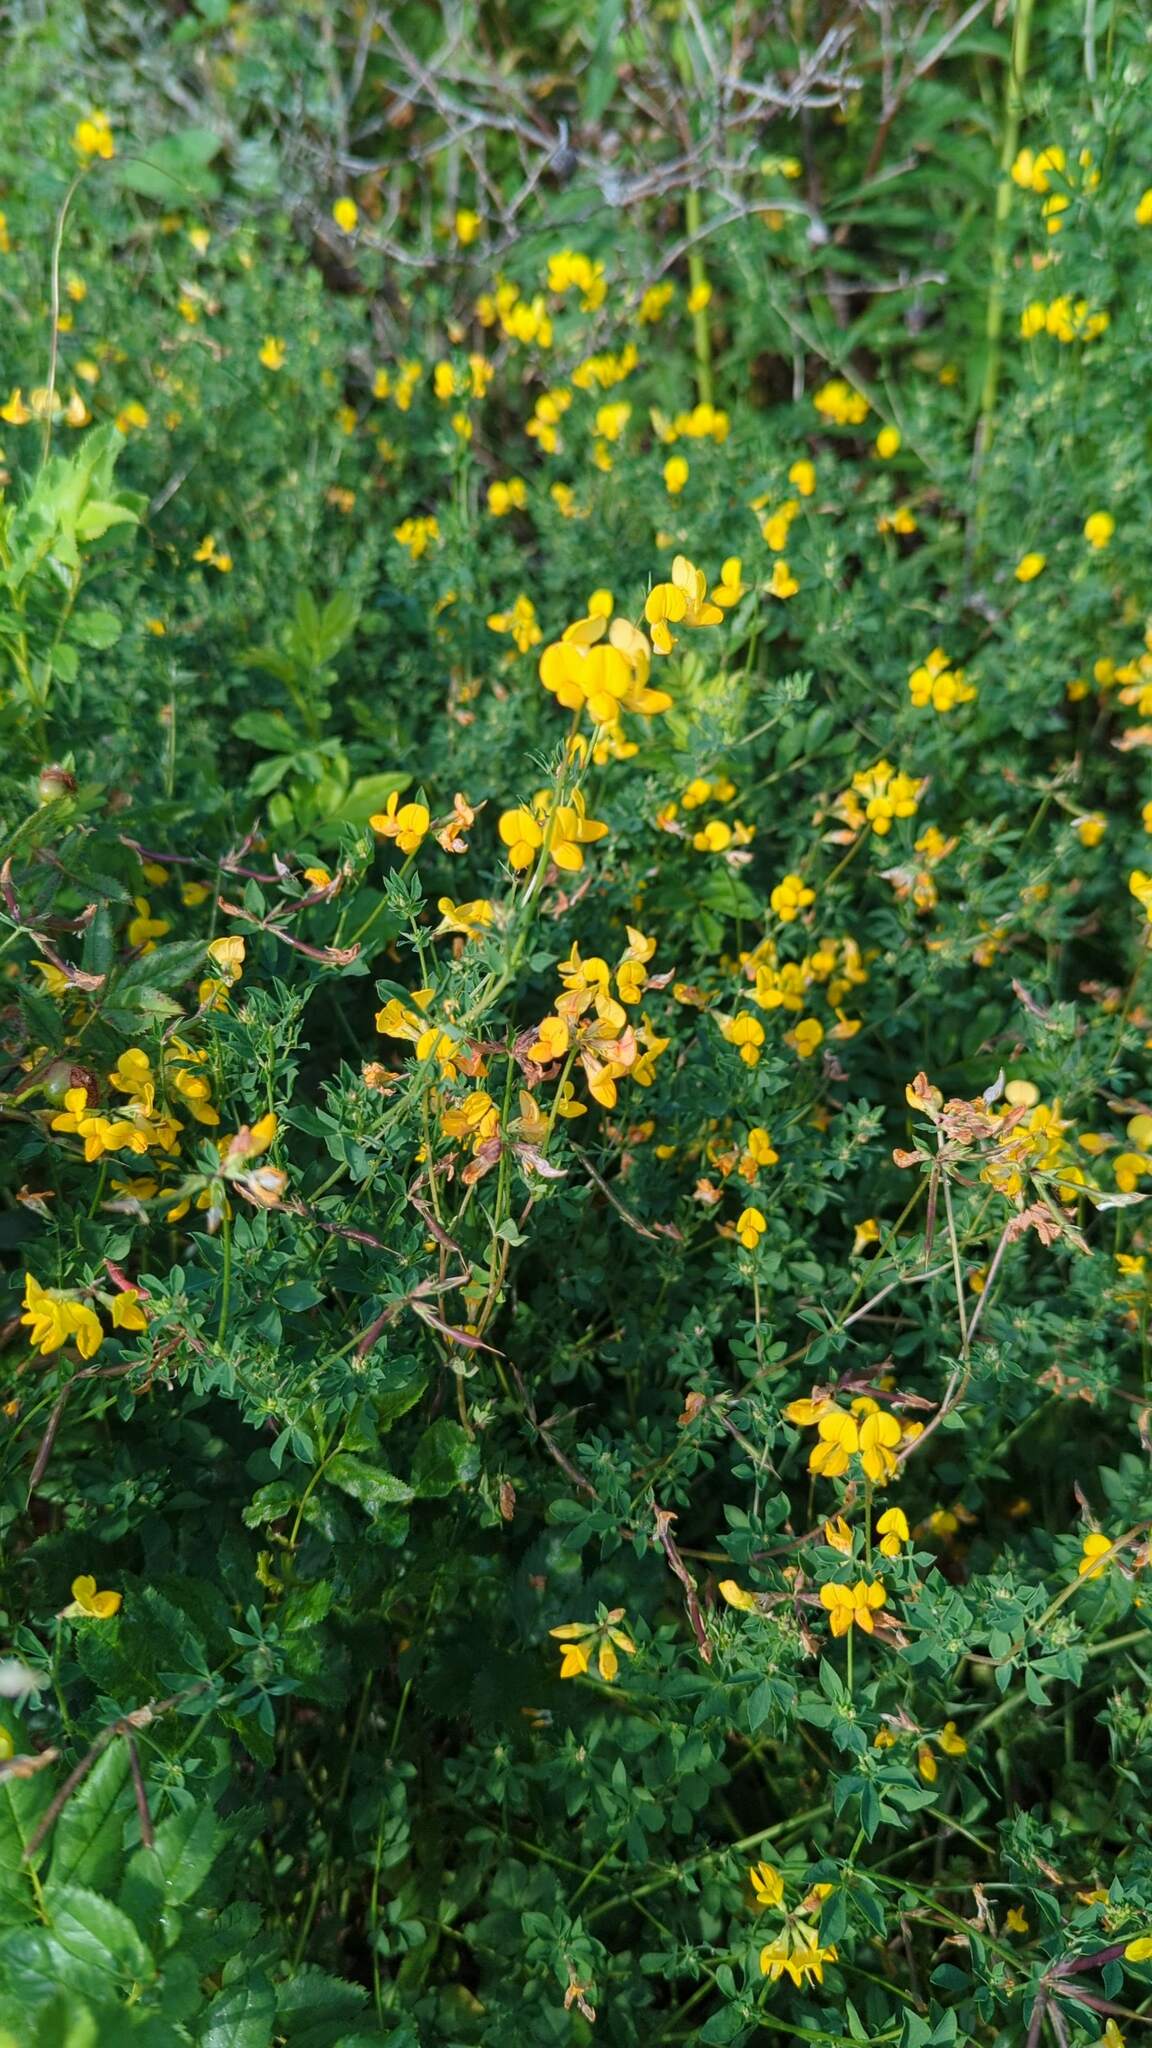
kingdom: Plantae
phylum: Tracheophyta
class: Magnoliopsida
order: Fabales
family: Fabaceae
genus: Lotus
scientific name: Lotus corniculatus
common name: Common bird's-foot-trefoil
